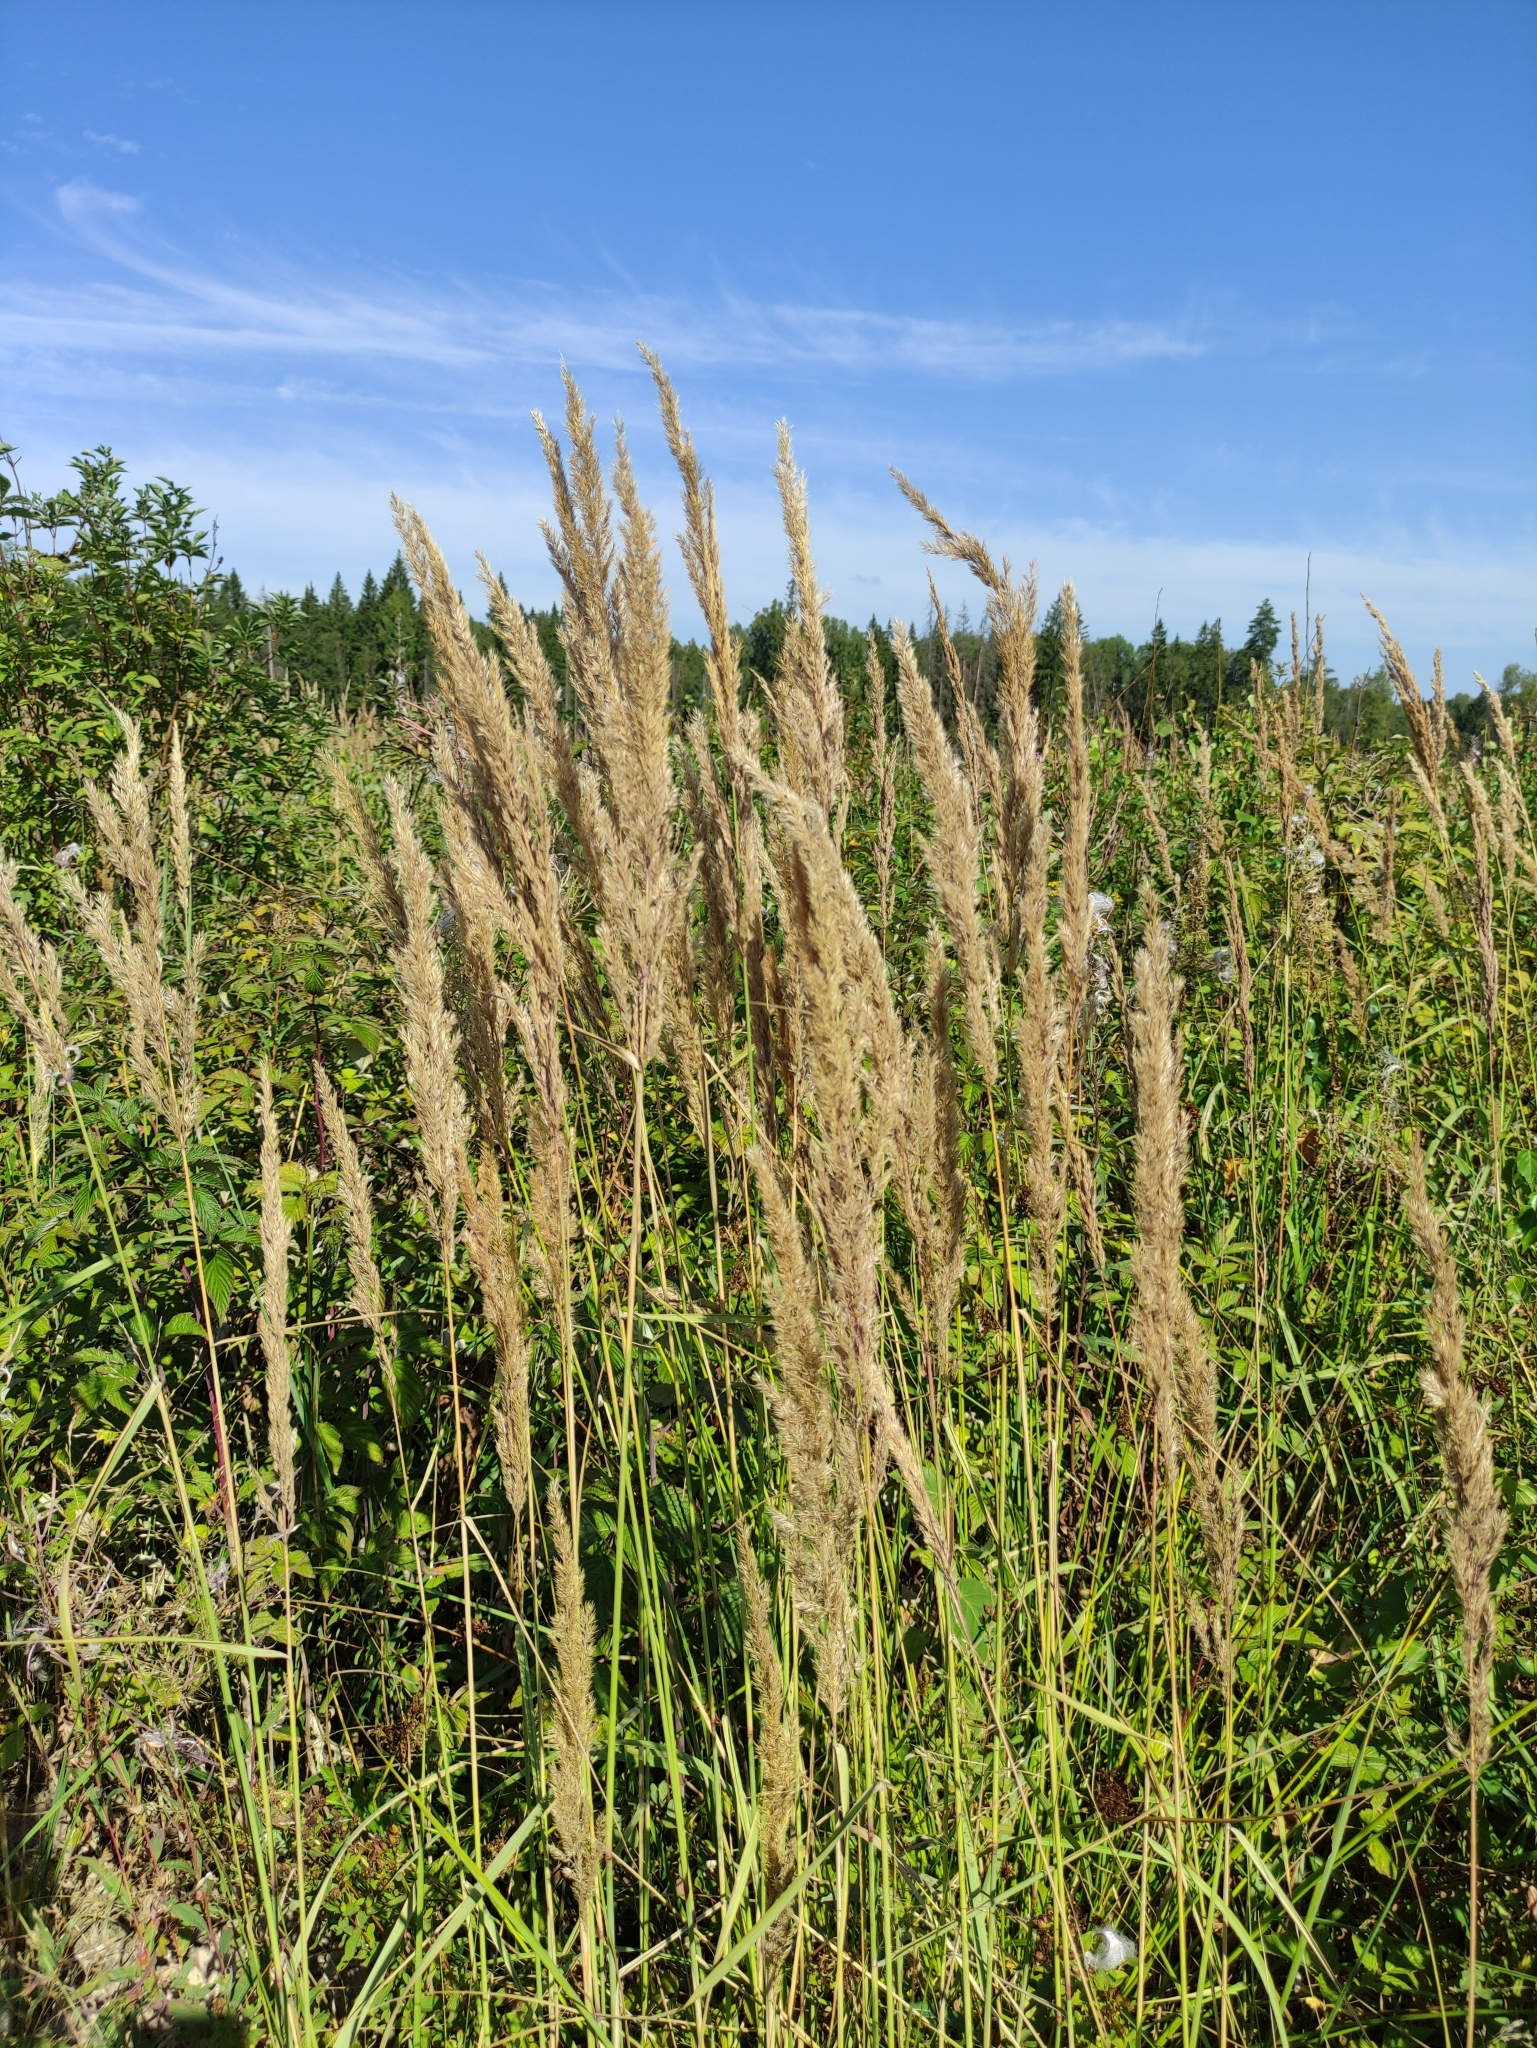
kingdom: Plantae
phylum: Tracheophyta
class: Liliopsida
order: Poales
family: Poaceae
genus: Calamagrostis
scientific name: Calamagrostis epigejos
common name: Wood small-reed
